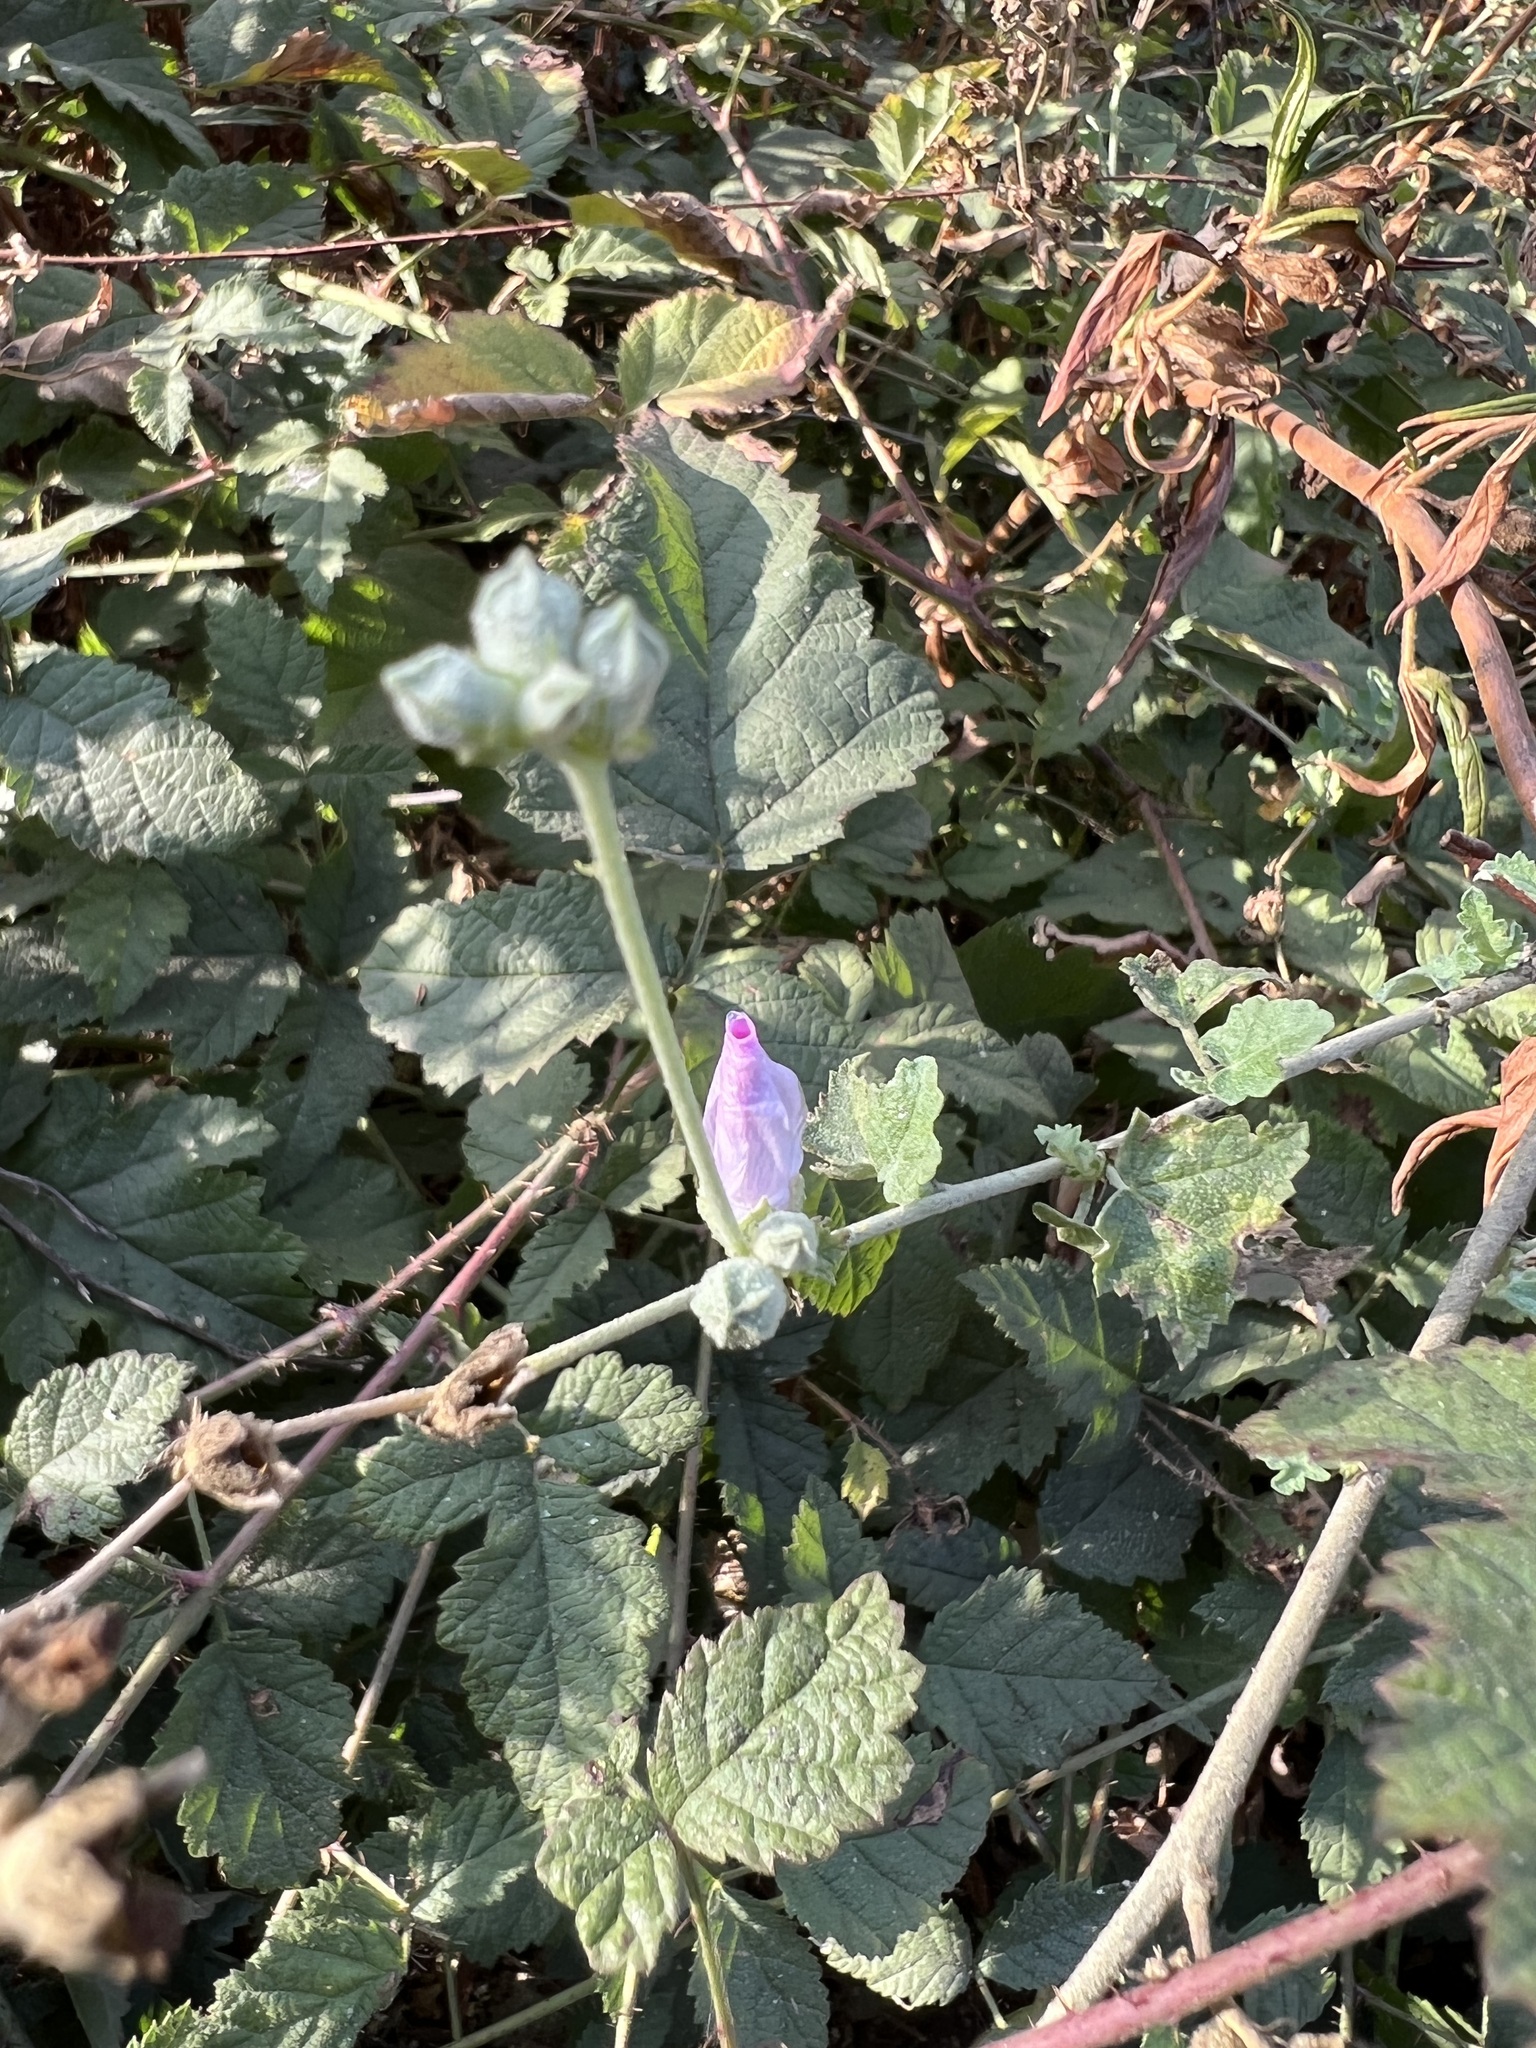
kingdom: Plantae
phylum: Tracheophyta
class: Magnoliopsida
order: Malvales
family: Malvaceae
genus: Malacothamnus
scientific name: Malacothamnus fasciculatus
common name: Sant cruz island bush-mallow
